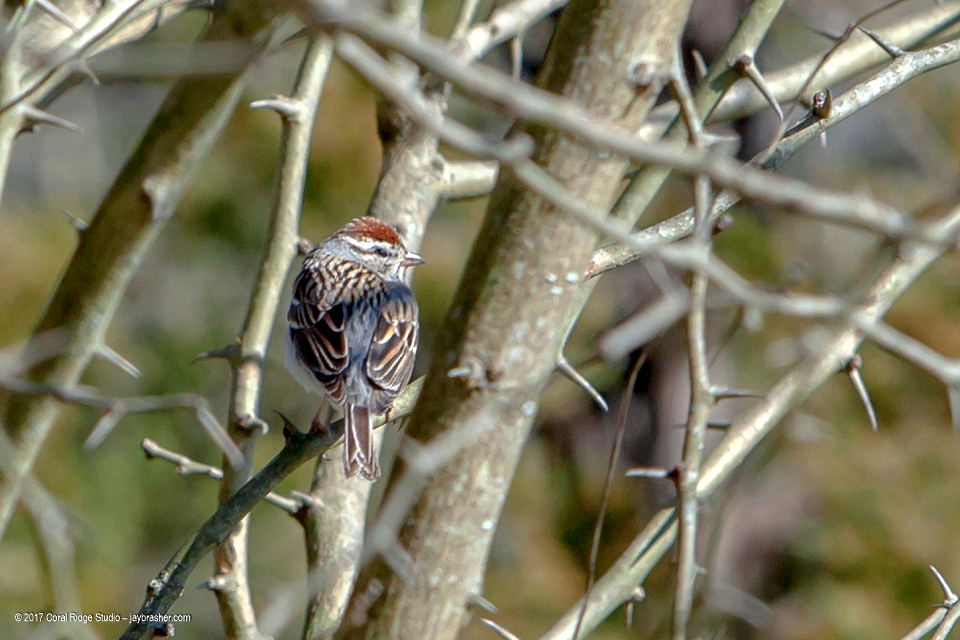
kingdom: Animalia
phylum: Chordata
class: Aves
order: Passeriformes
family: Passerellidae
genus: Spizella
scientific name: Spizella passerina
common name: Chipping sparrow
